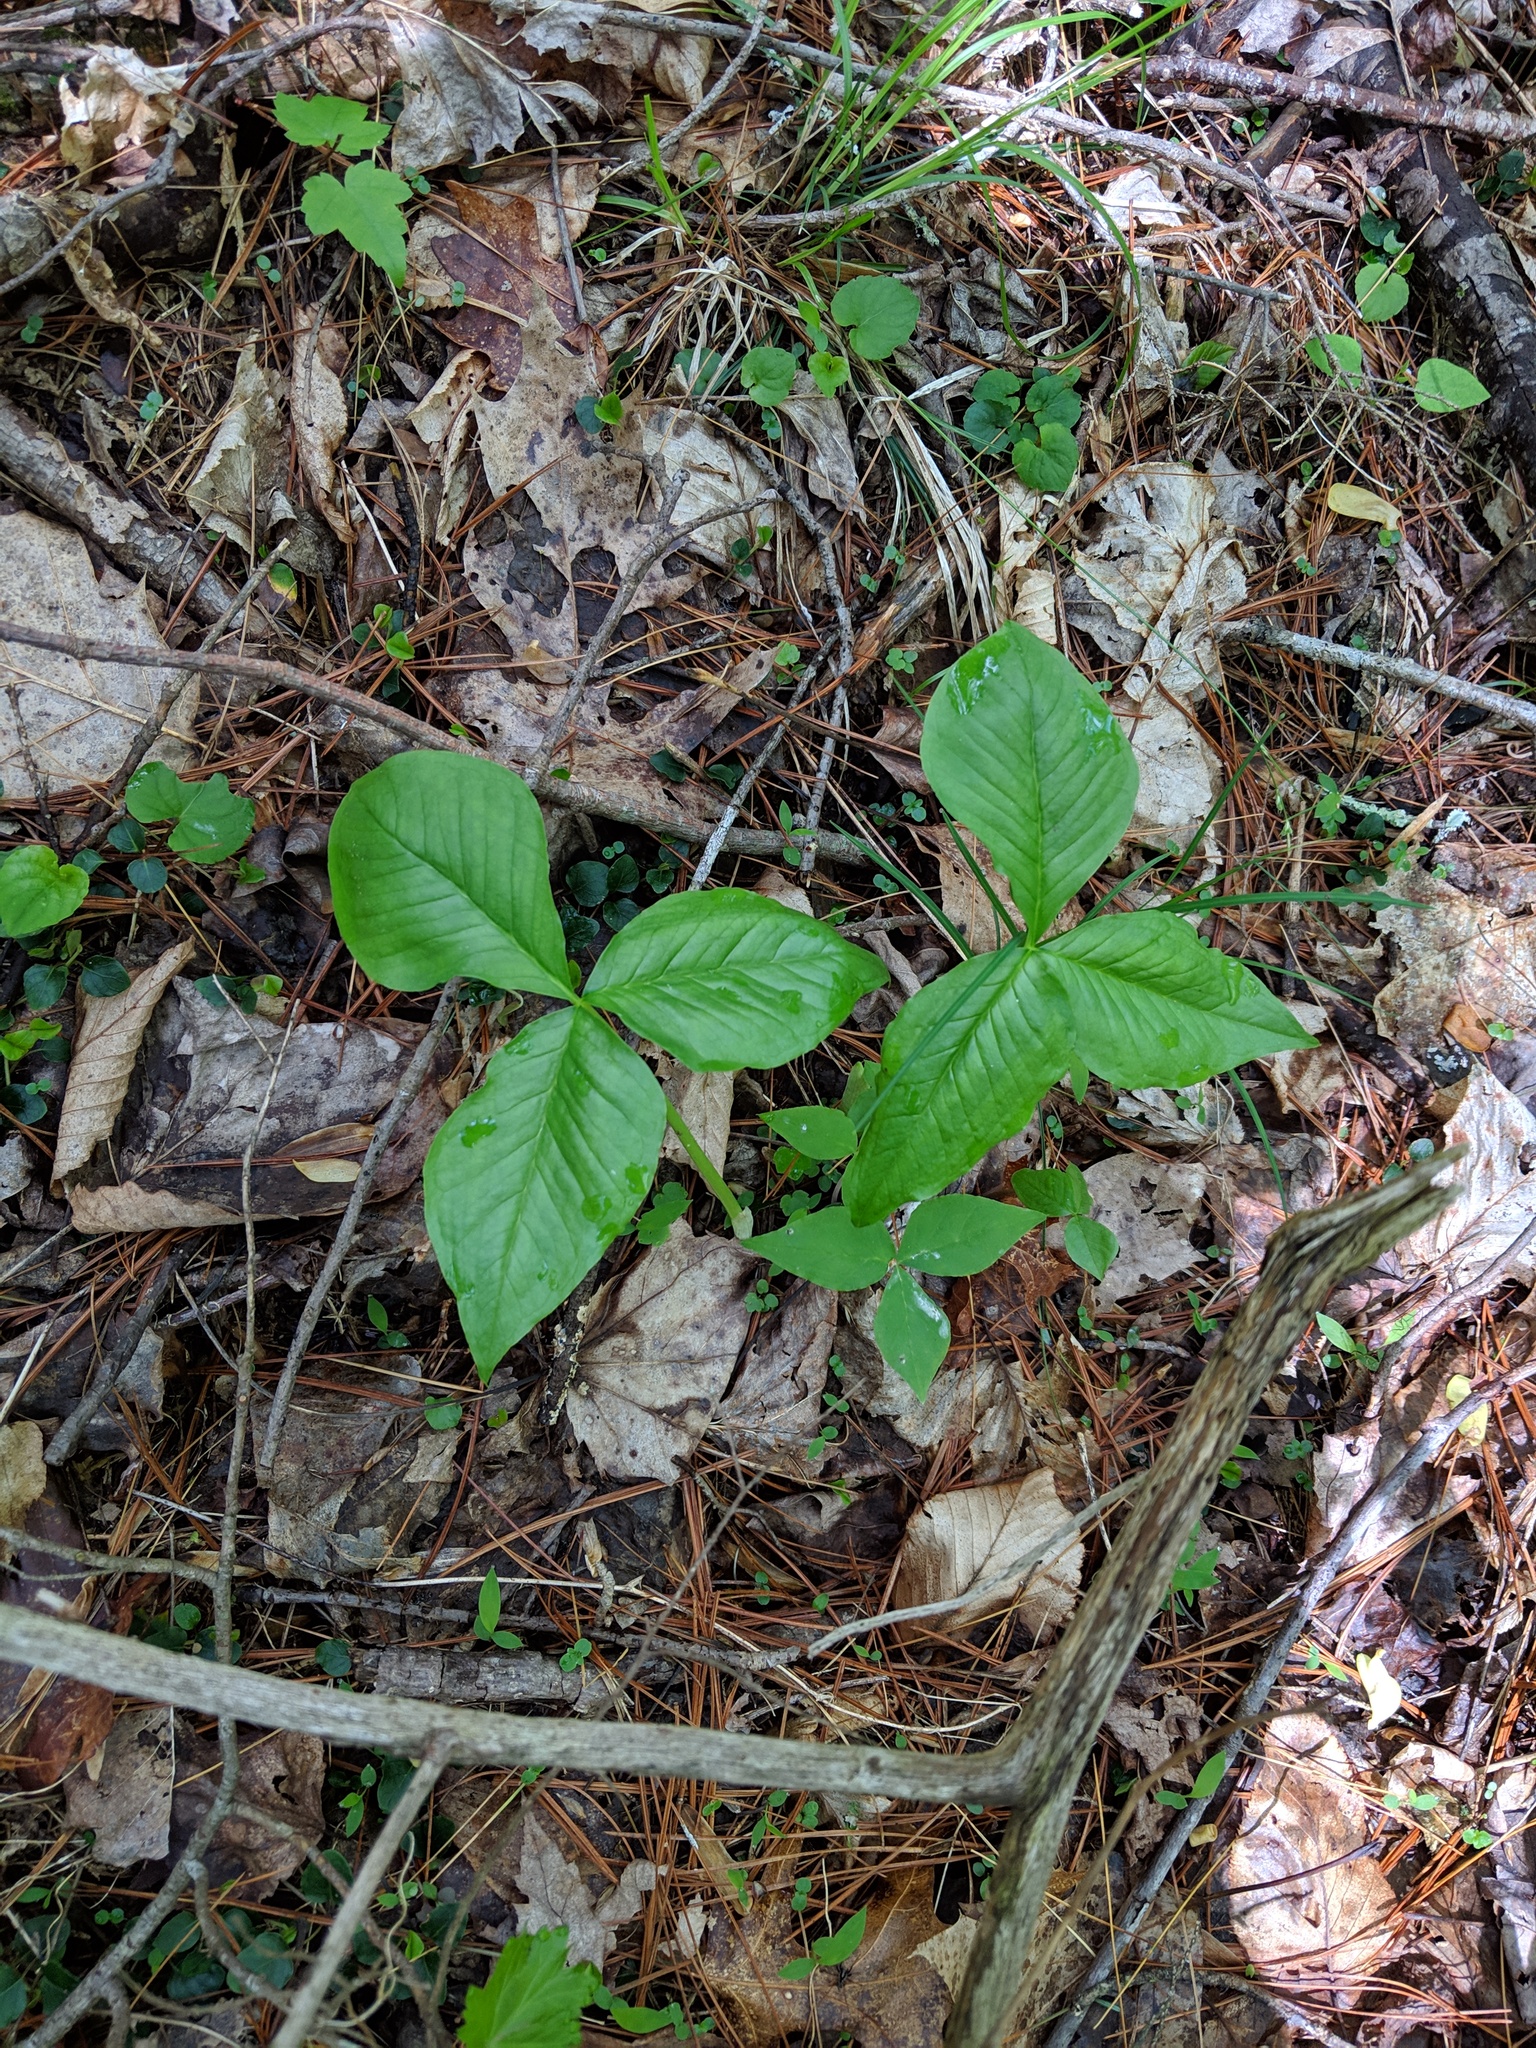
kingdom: Plantae
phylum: Tracheophyta
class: Liliopsida
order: Alismatales
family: Araceae
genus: Arisaema
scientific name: Arisaema triphyllum
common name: Jack-in-the-pulpit
